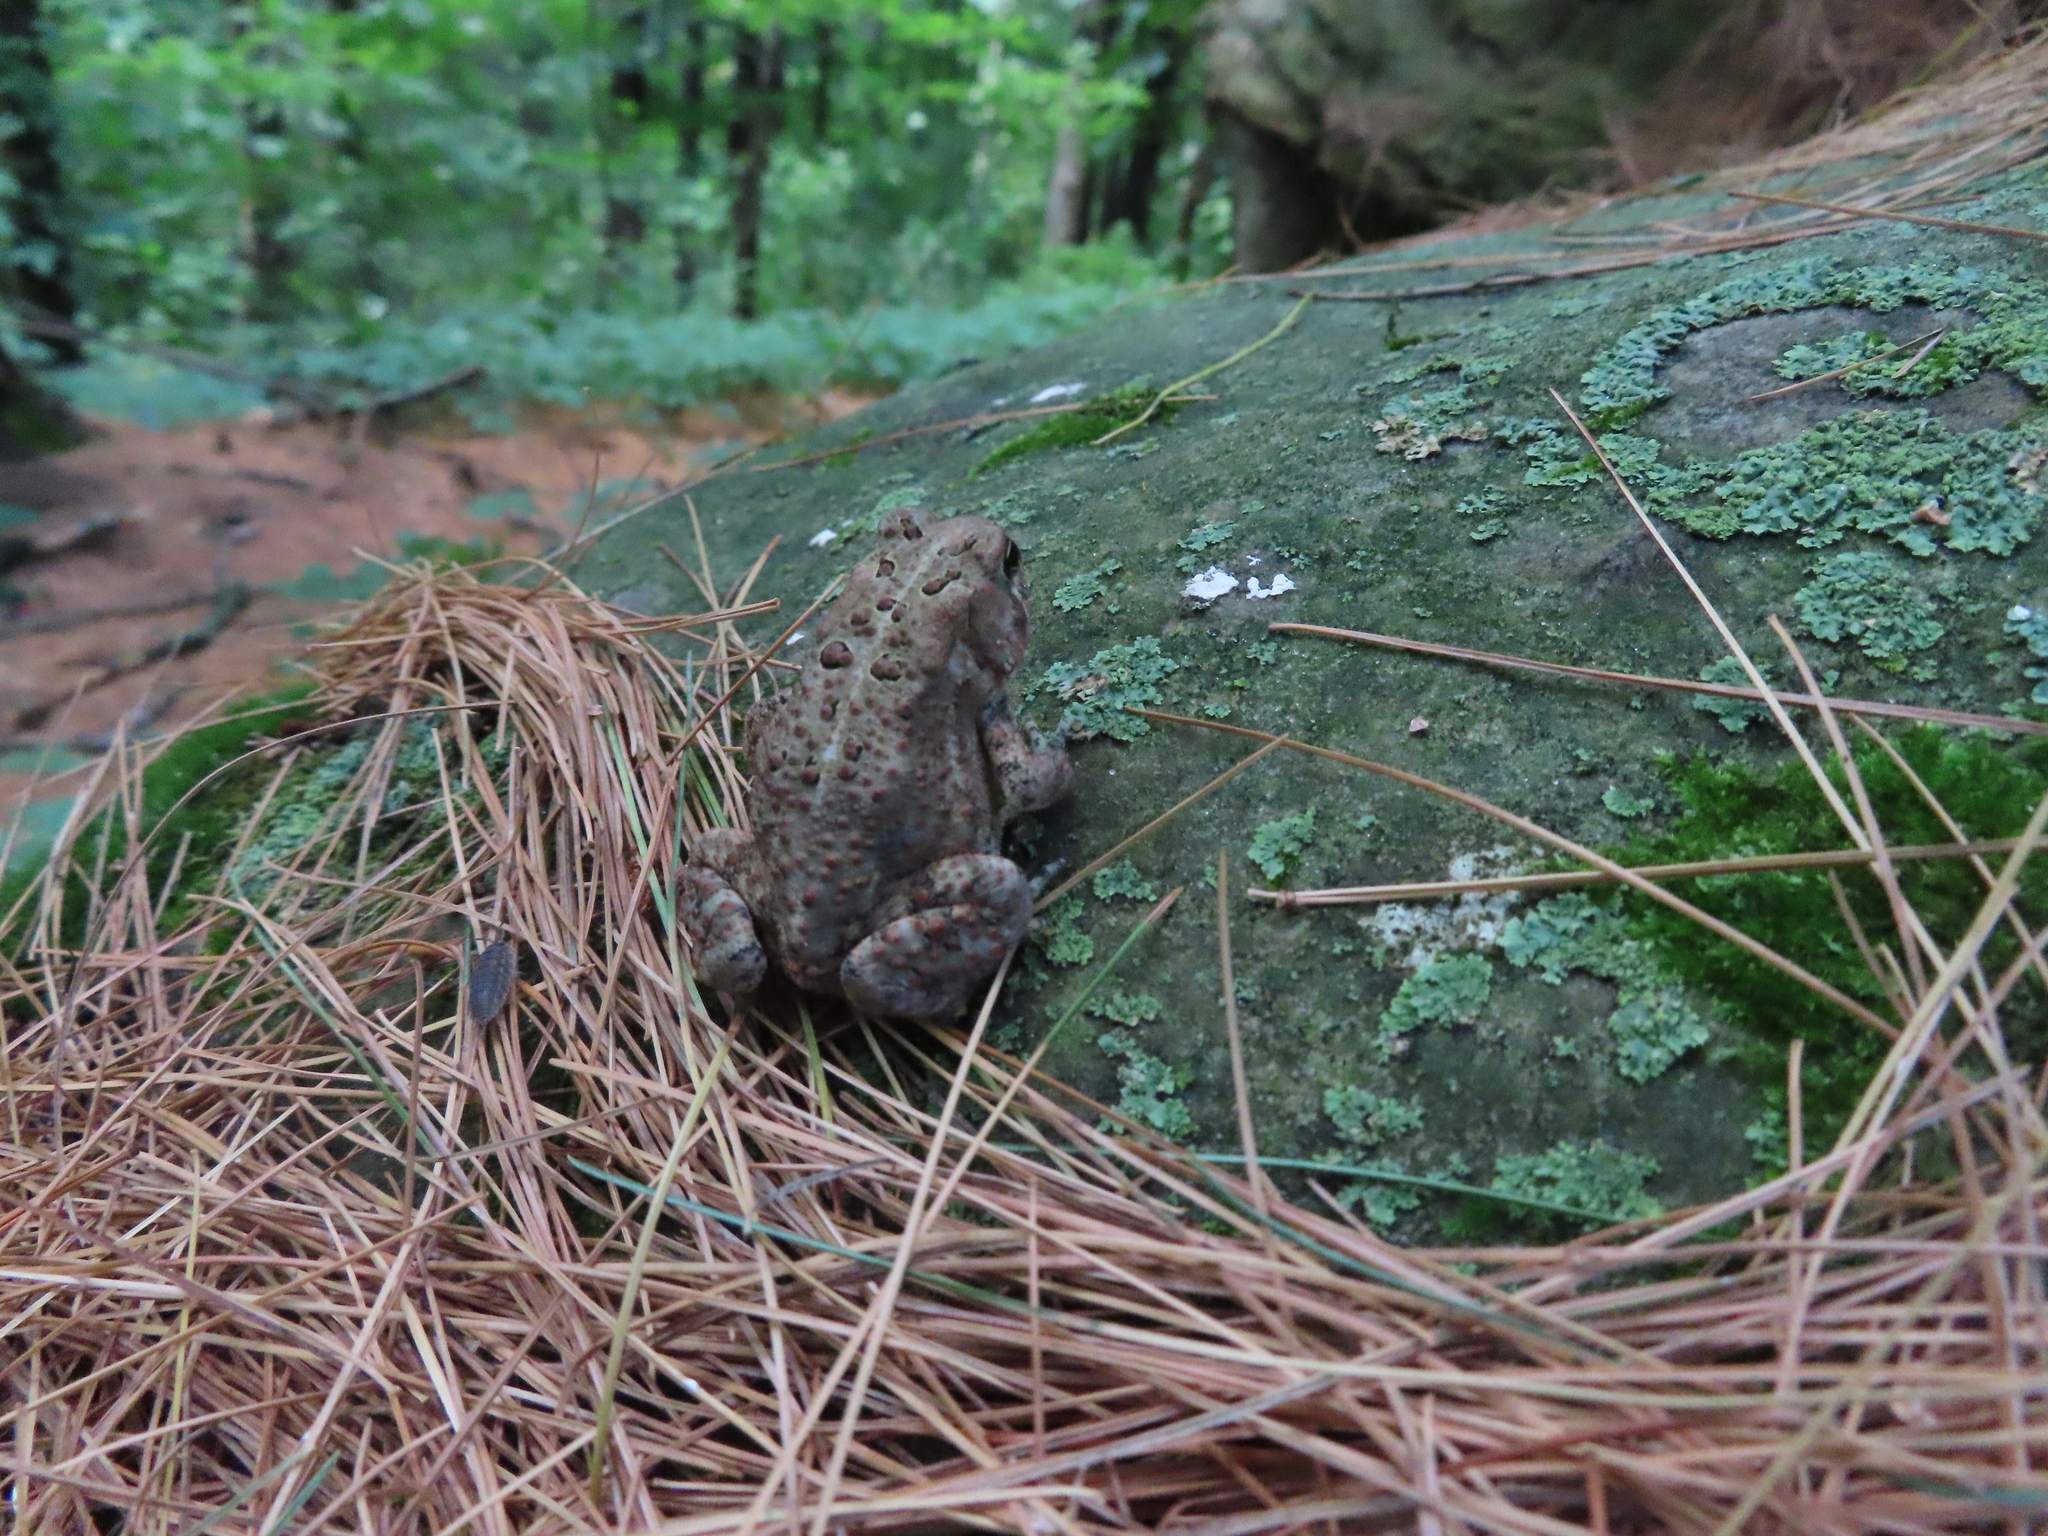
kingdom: Animalia
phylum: Chordata
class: Amphibia
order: Anura
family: Bufonidae
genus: Anaxyrus
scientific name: Anaxyrus americanus
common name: American toad
